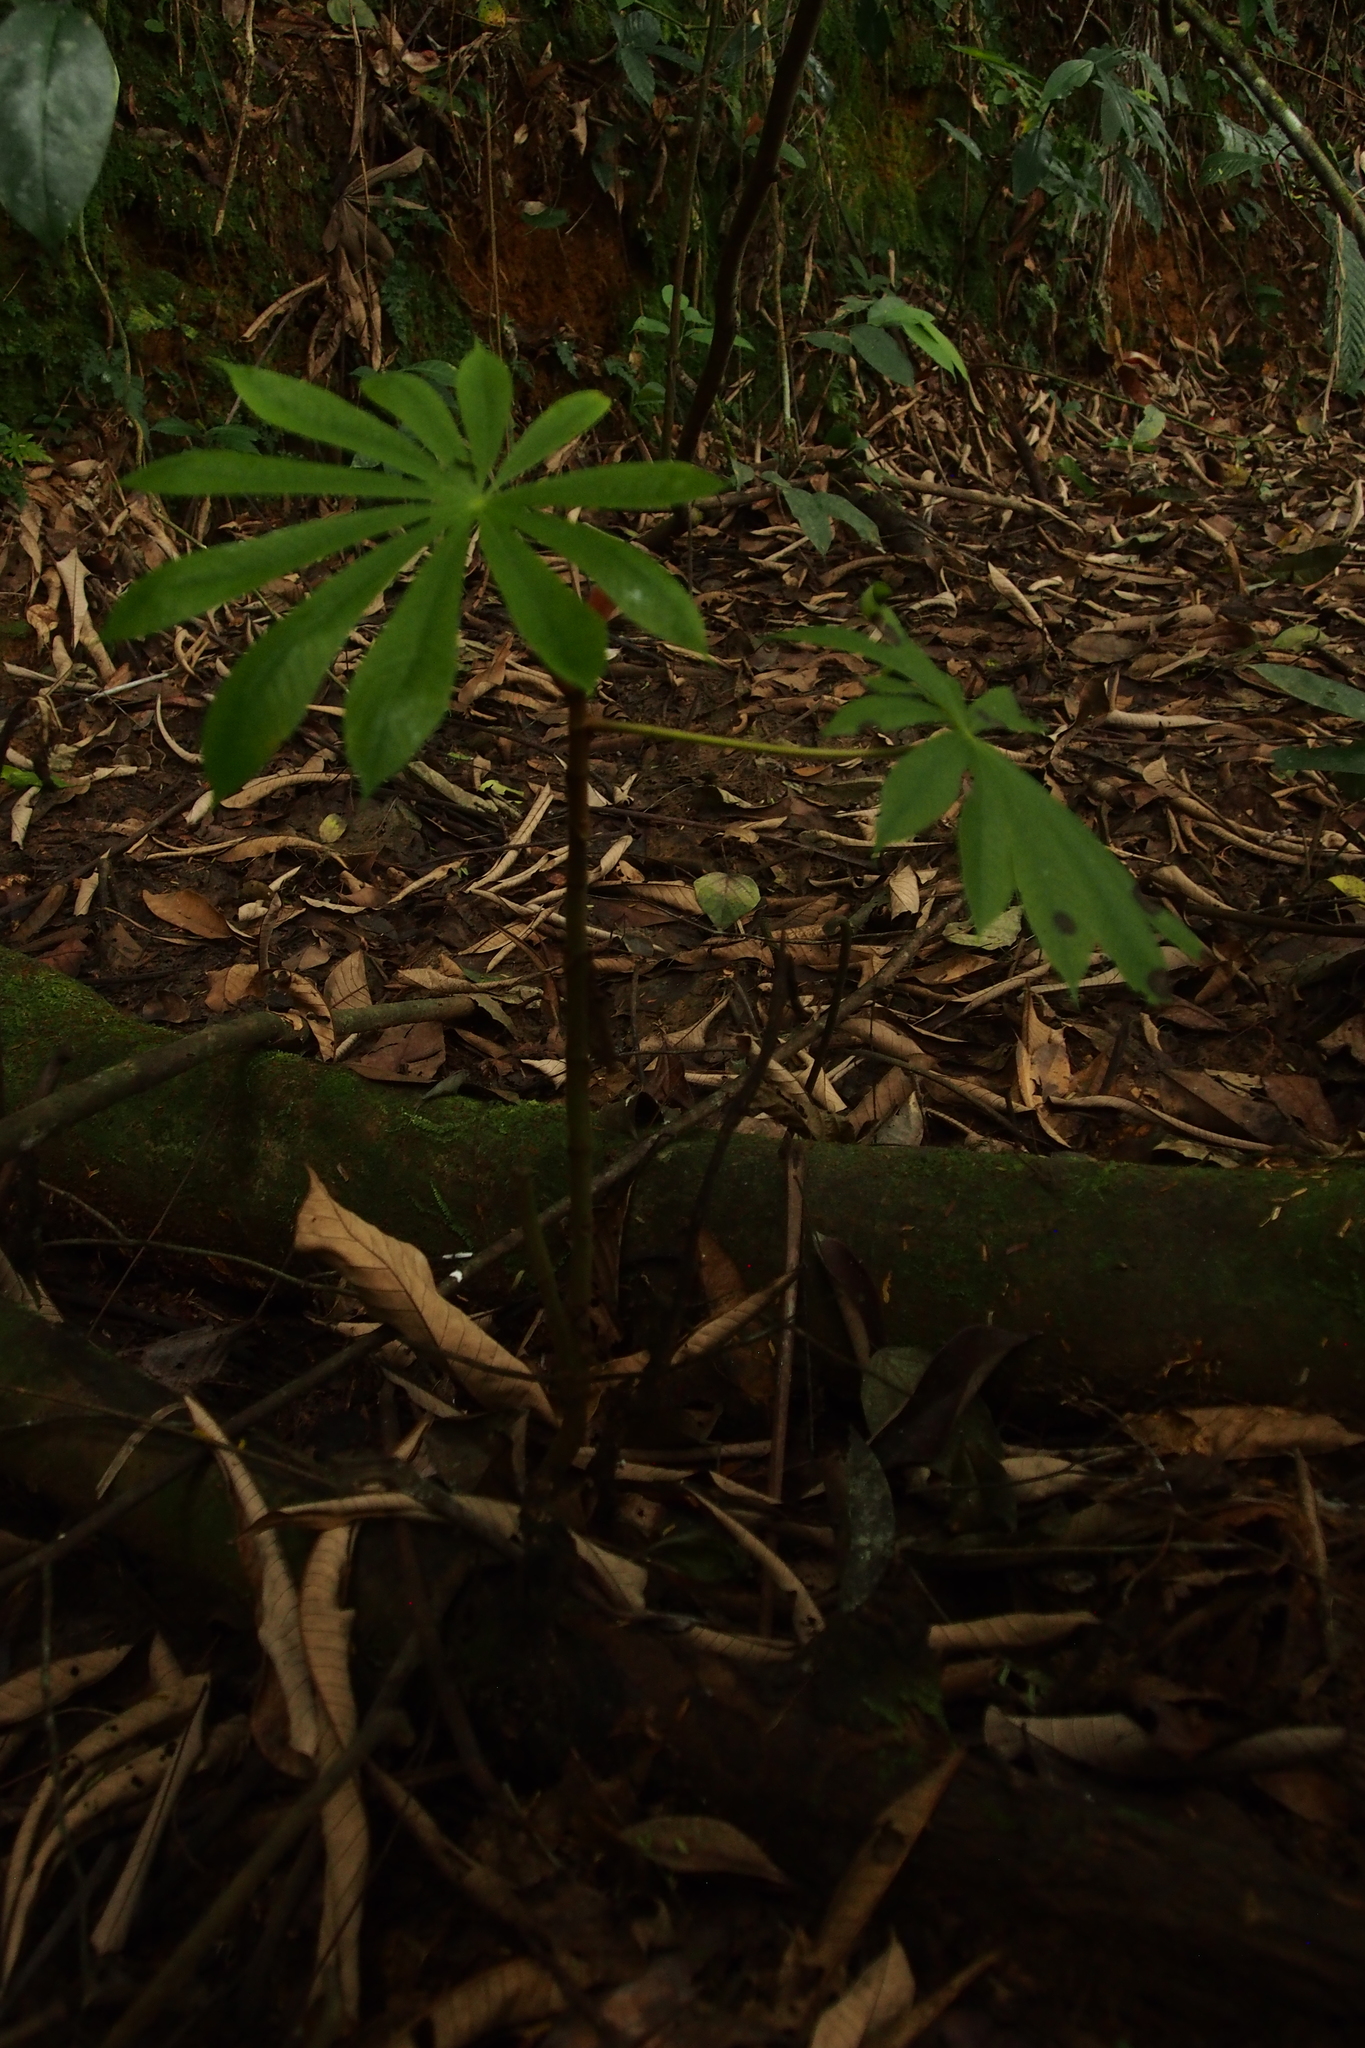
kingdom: Plantae
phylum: Tracheophyta
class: Magnoliopsida
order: Rosales
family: Urticaceae
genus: Musanga
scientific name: Musanga cecropioides
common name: African corkwood
